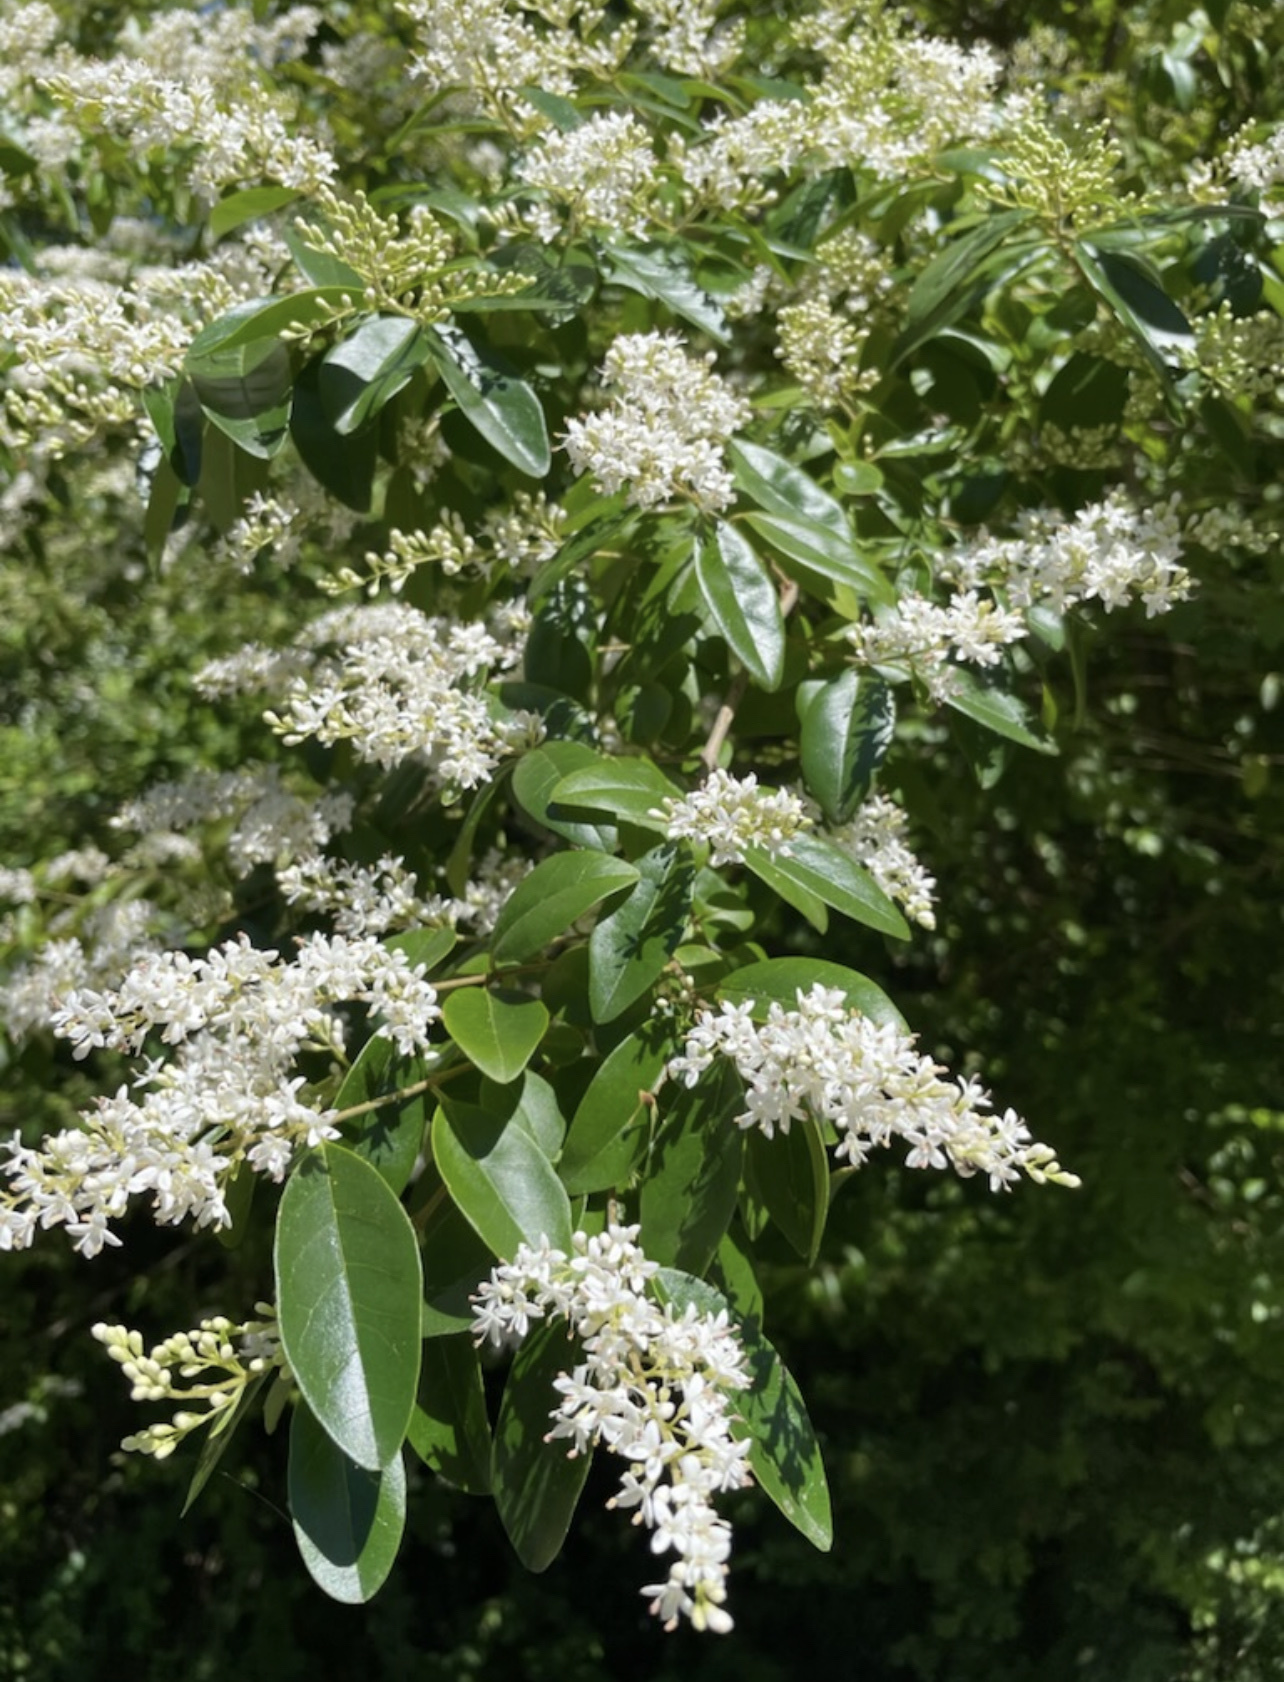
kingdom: Plantae
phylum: Tracheophyta
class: Magnoliopsida
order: Lamiales
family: Oleaceae
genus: Ligustrum
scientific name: Ligustrum sinense
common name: Chinese privet
